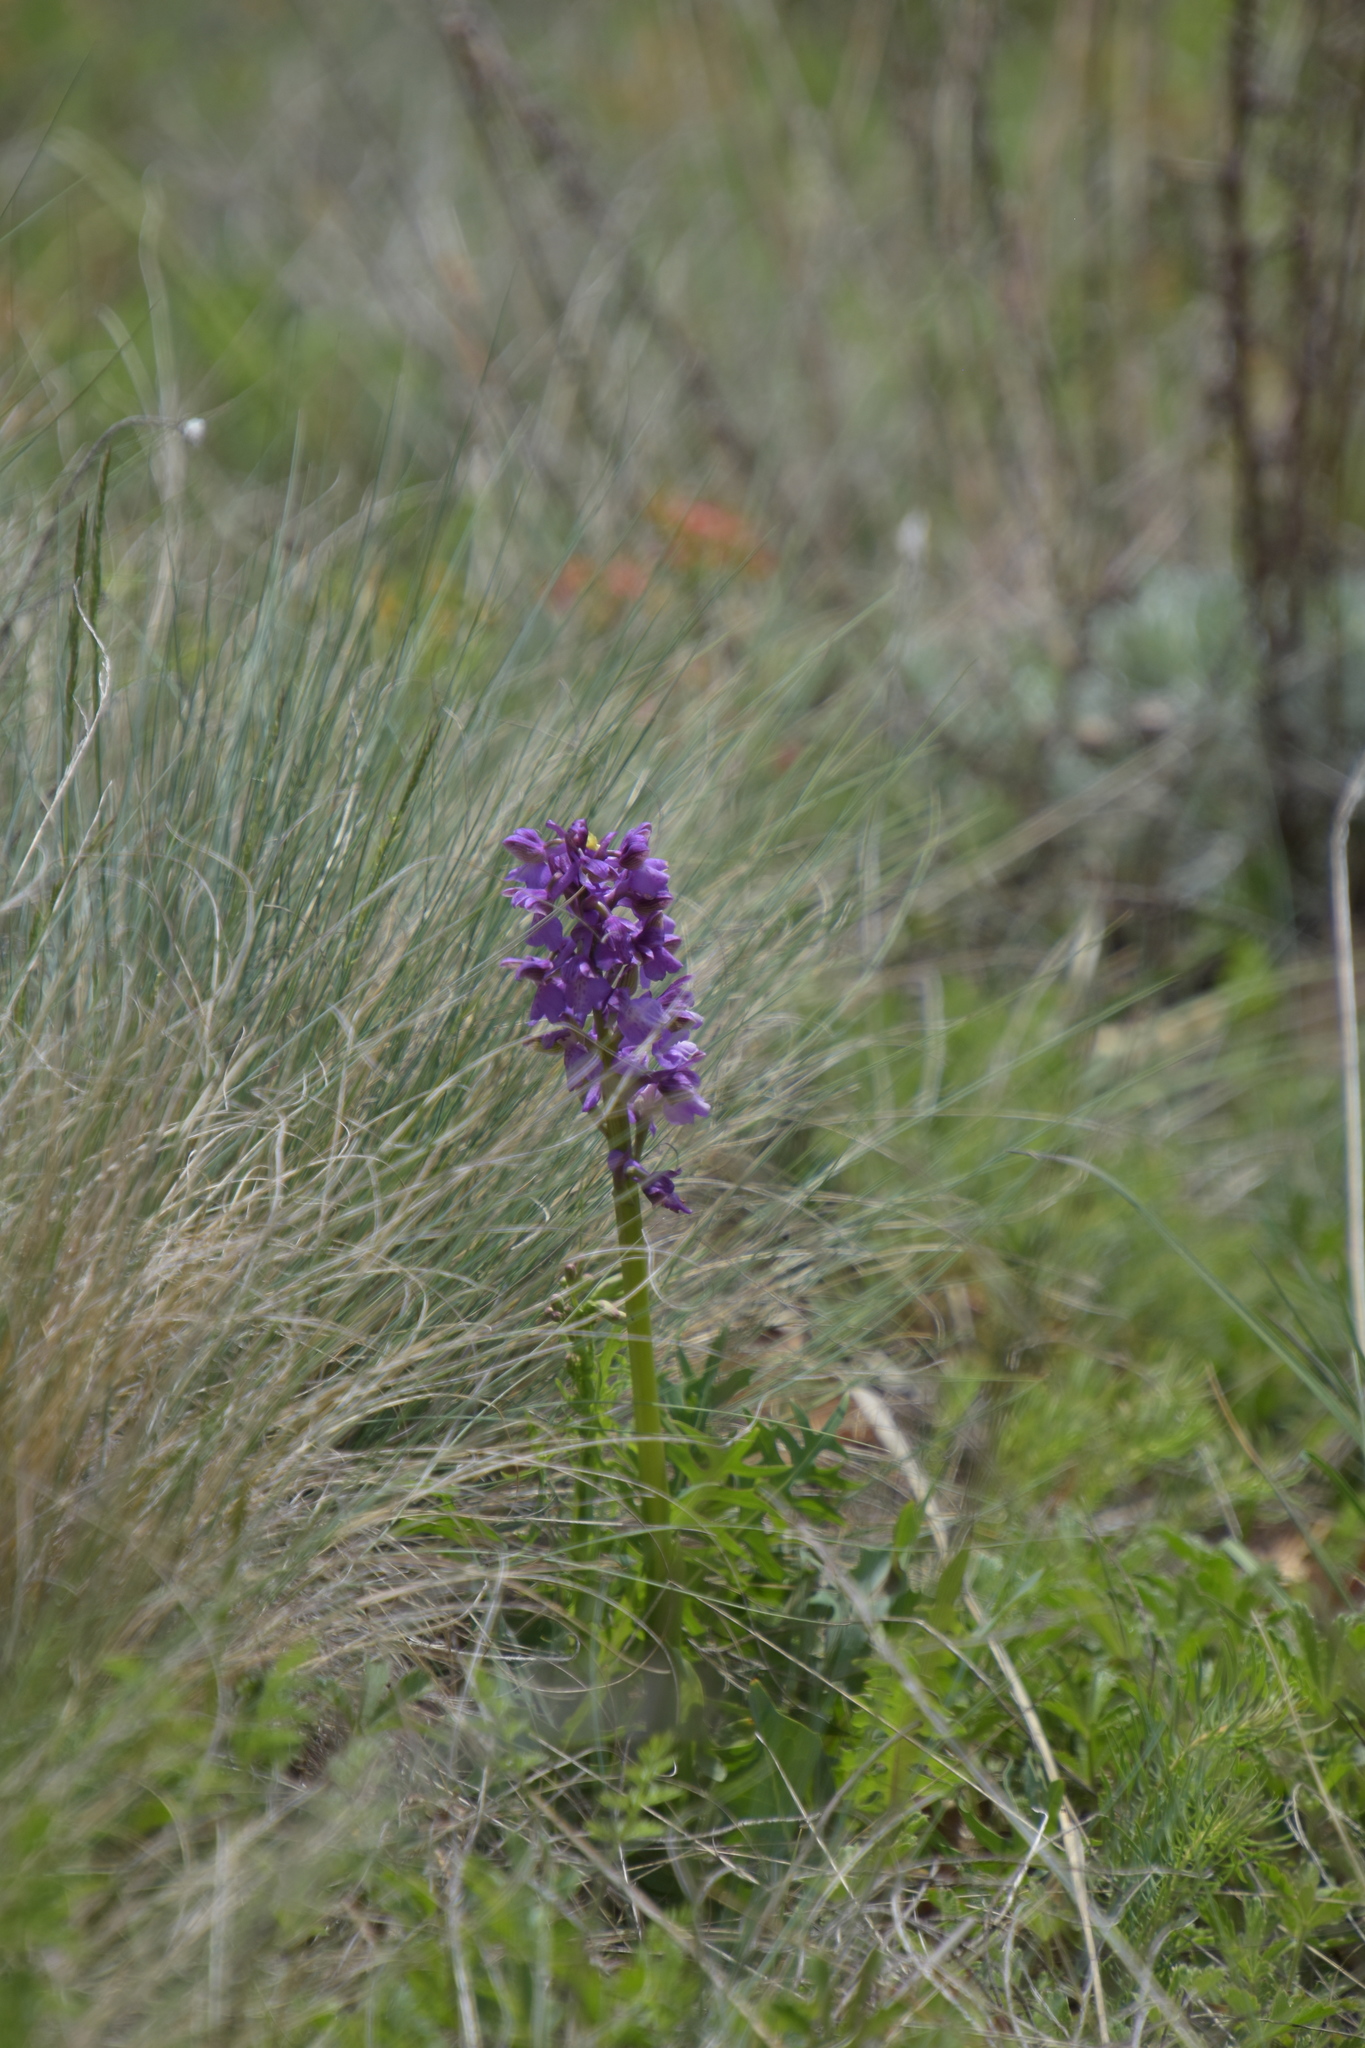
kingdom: Plantae
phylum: Tracheophyta
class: Liliopsida
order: Asparagales
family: Orchidaceae
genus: Anacamptis
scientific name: Anacamptis morio
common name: Green-winged orchid
